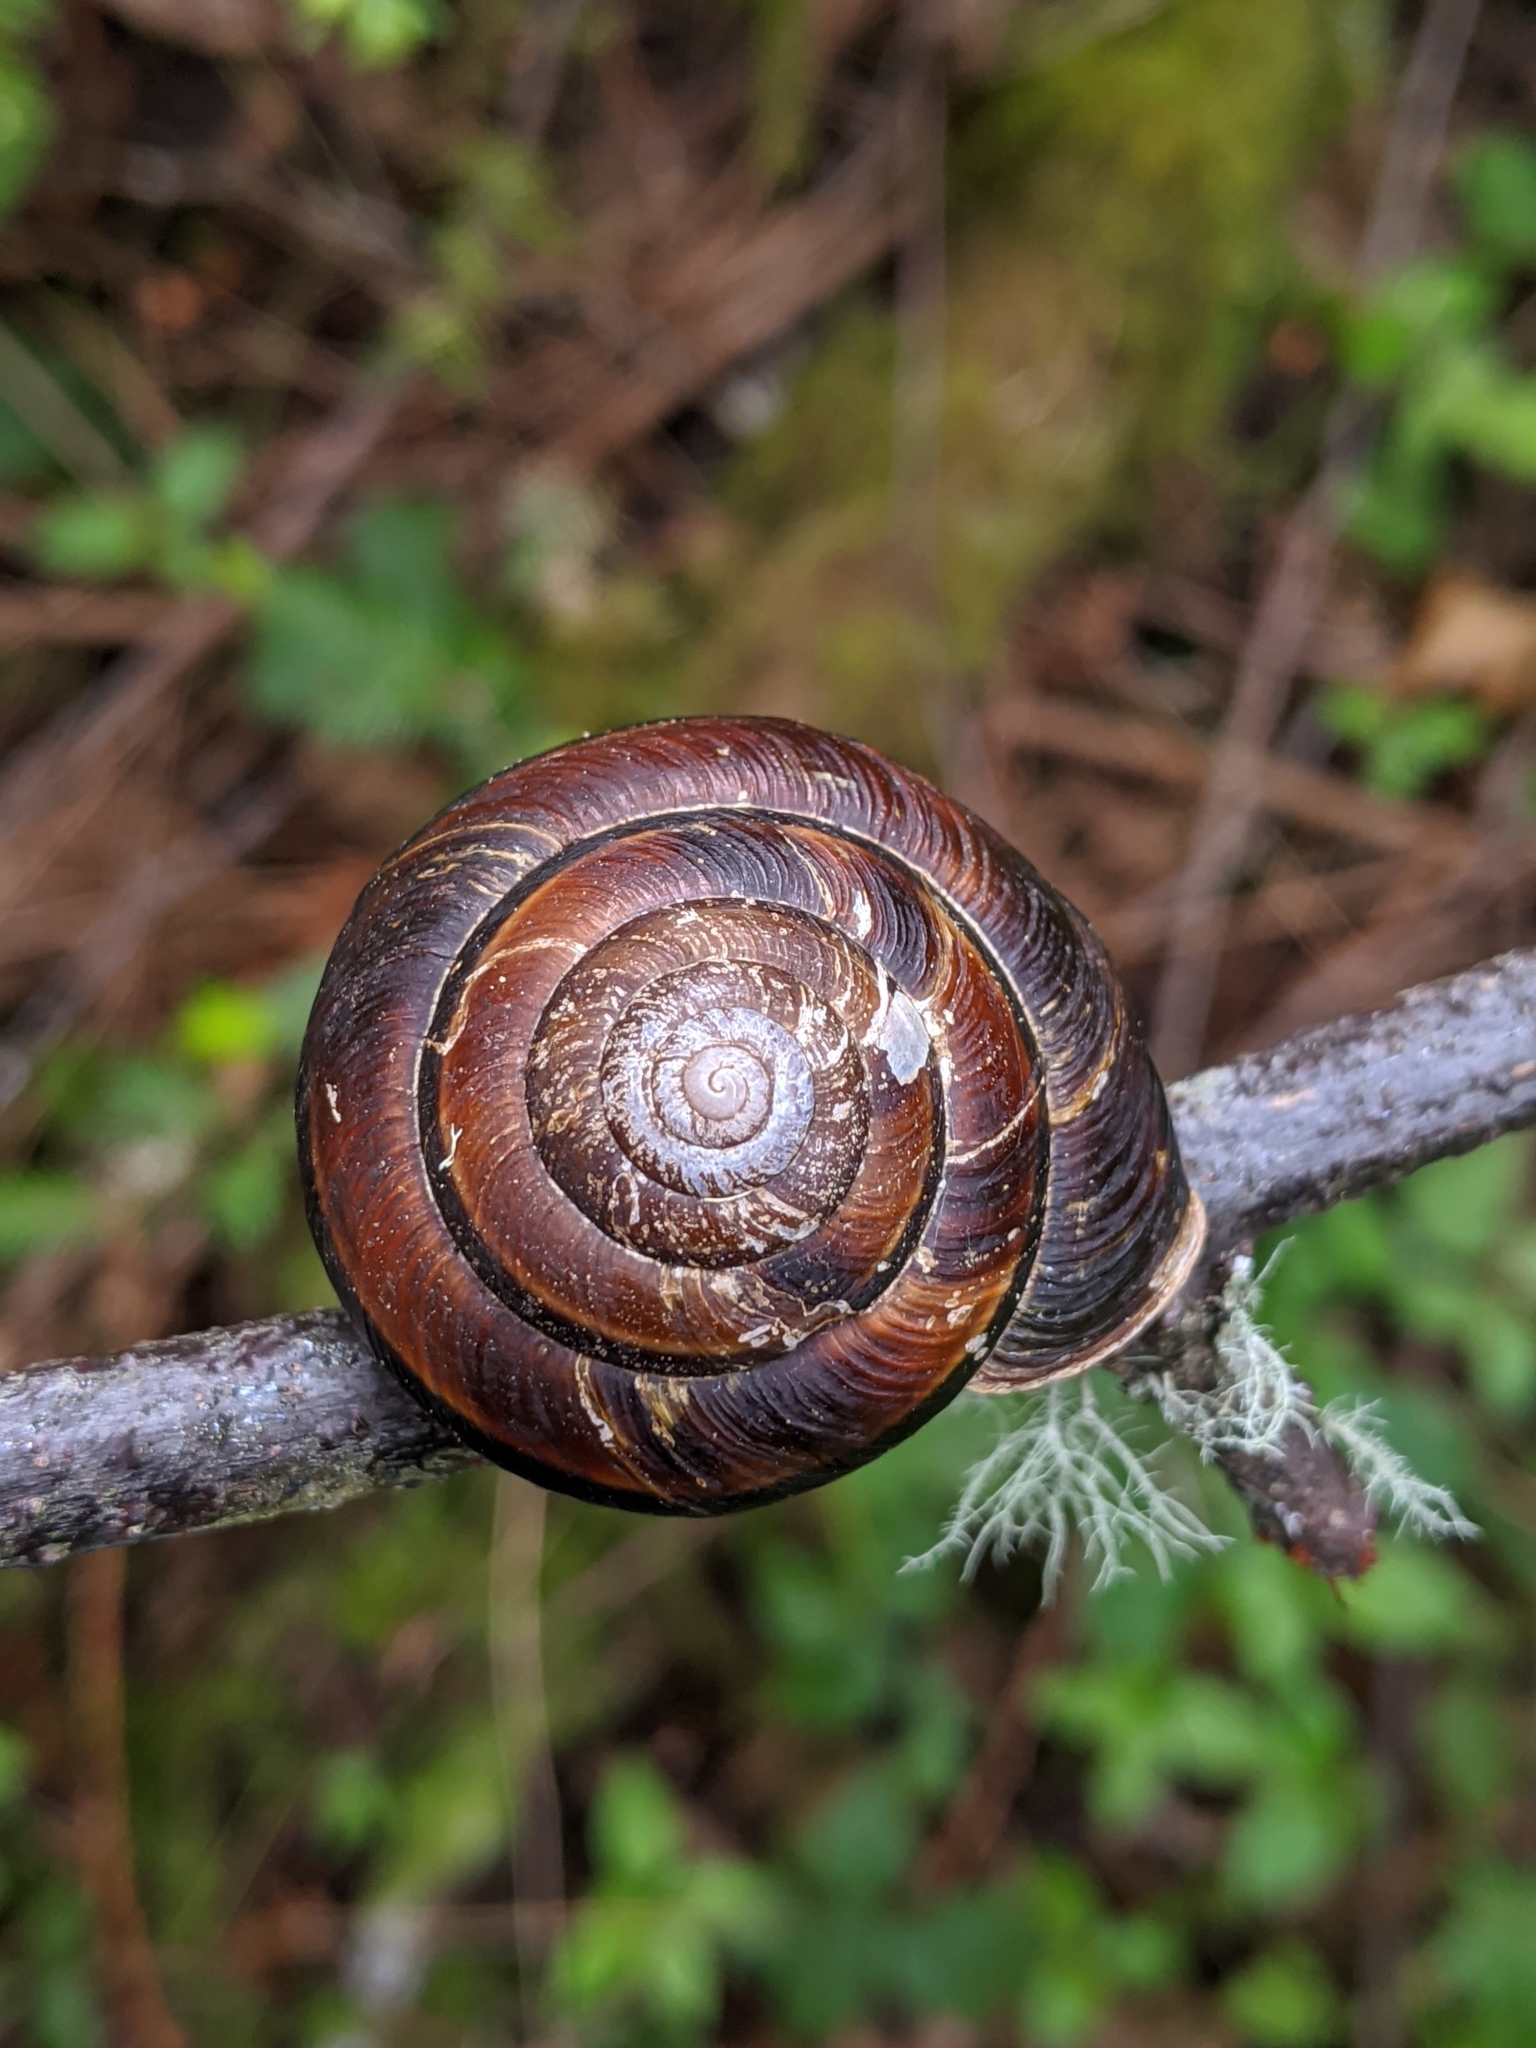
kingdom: Animalia
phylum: Mollusca
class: Gastropoda
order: Stylommatophora
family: Xanthonychidae
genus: Monadenia
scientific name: Monadenia fidelis
